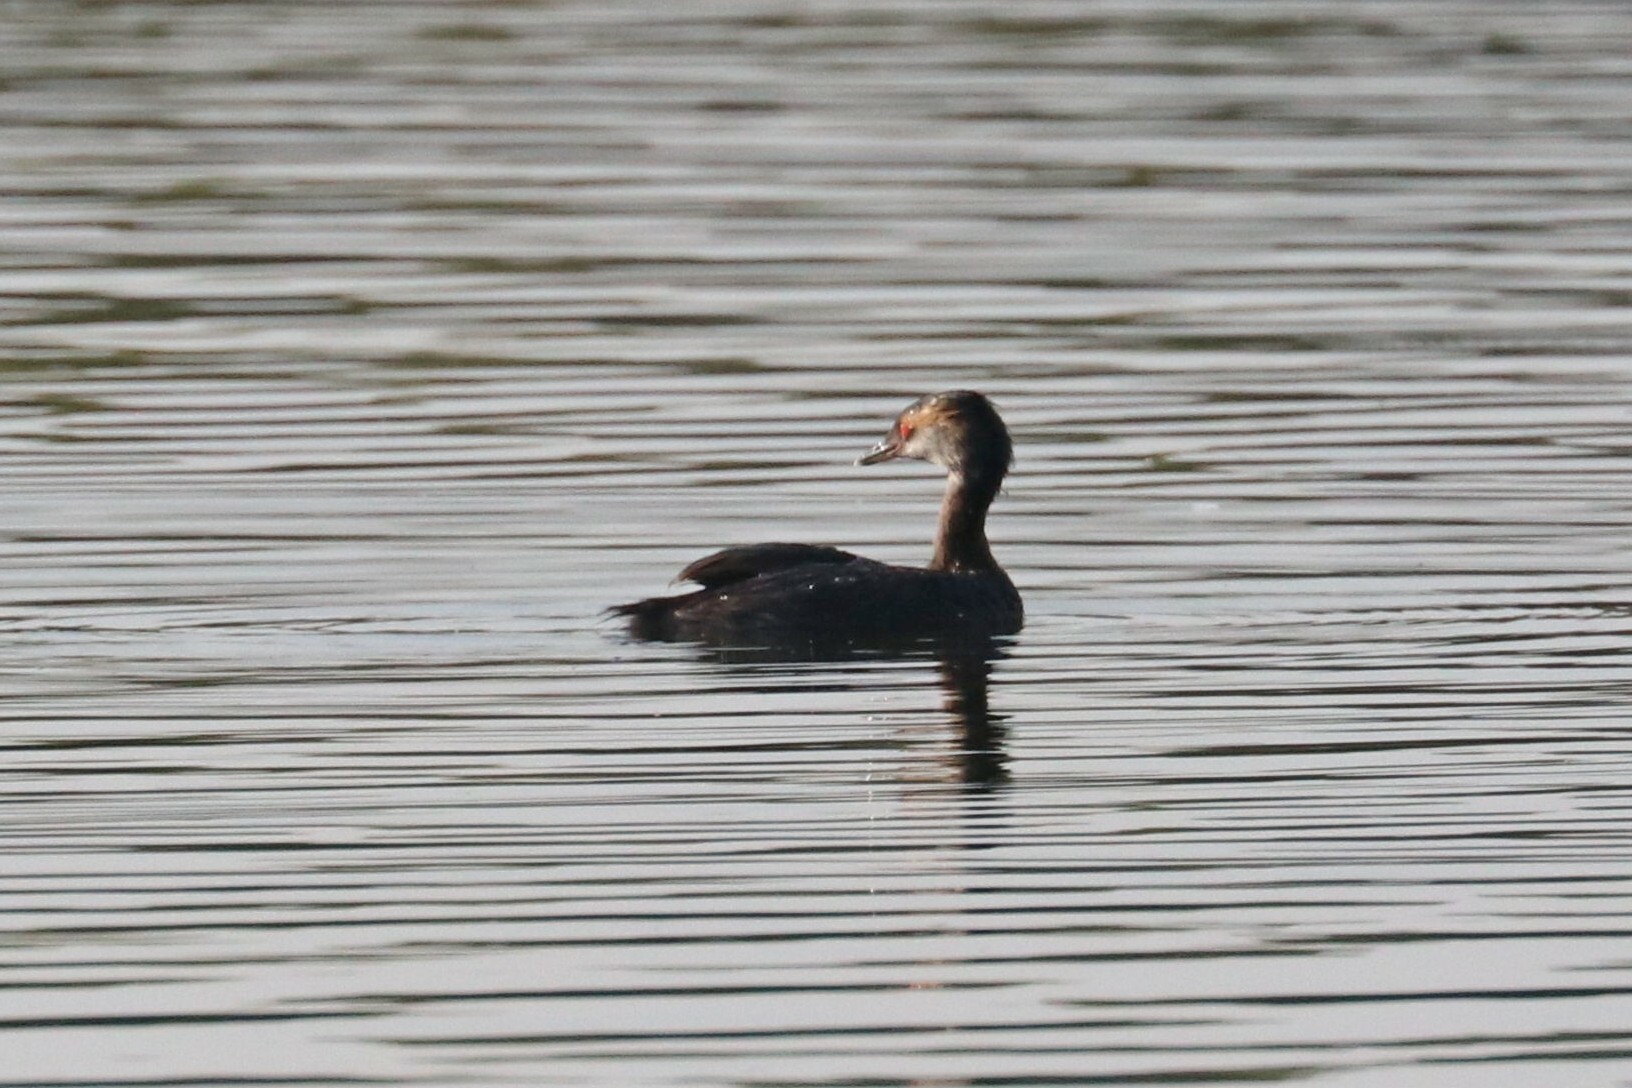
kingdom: Animalia
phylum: Chordata
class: Aves
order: Podicipediformes
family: Podicipedidae
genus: Podiceps
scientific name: Podiceps auritus
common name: Horned grebe
